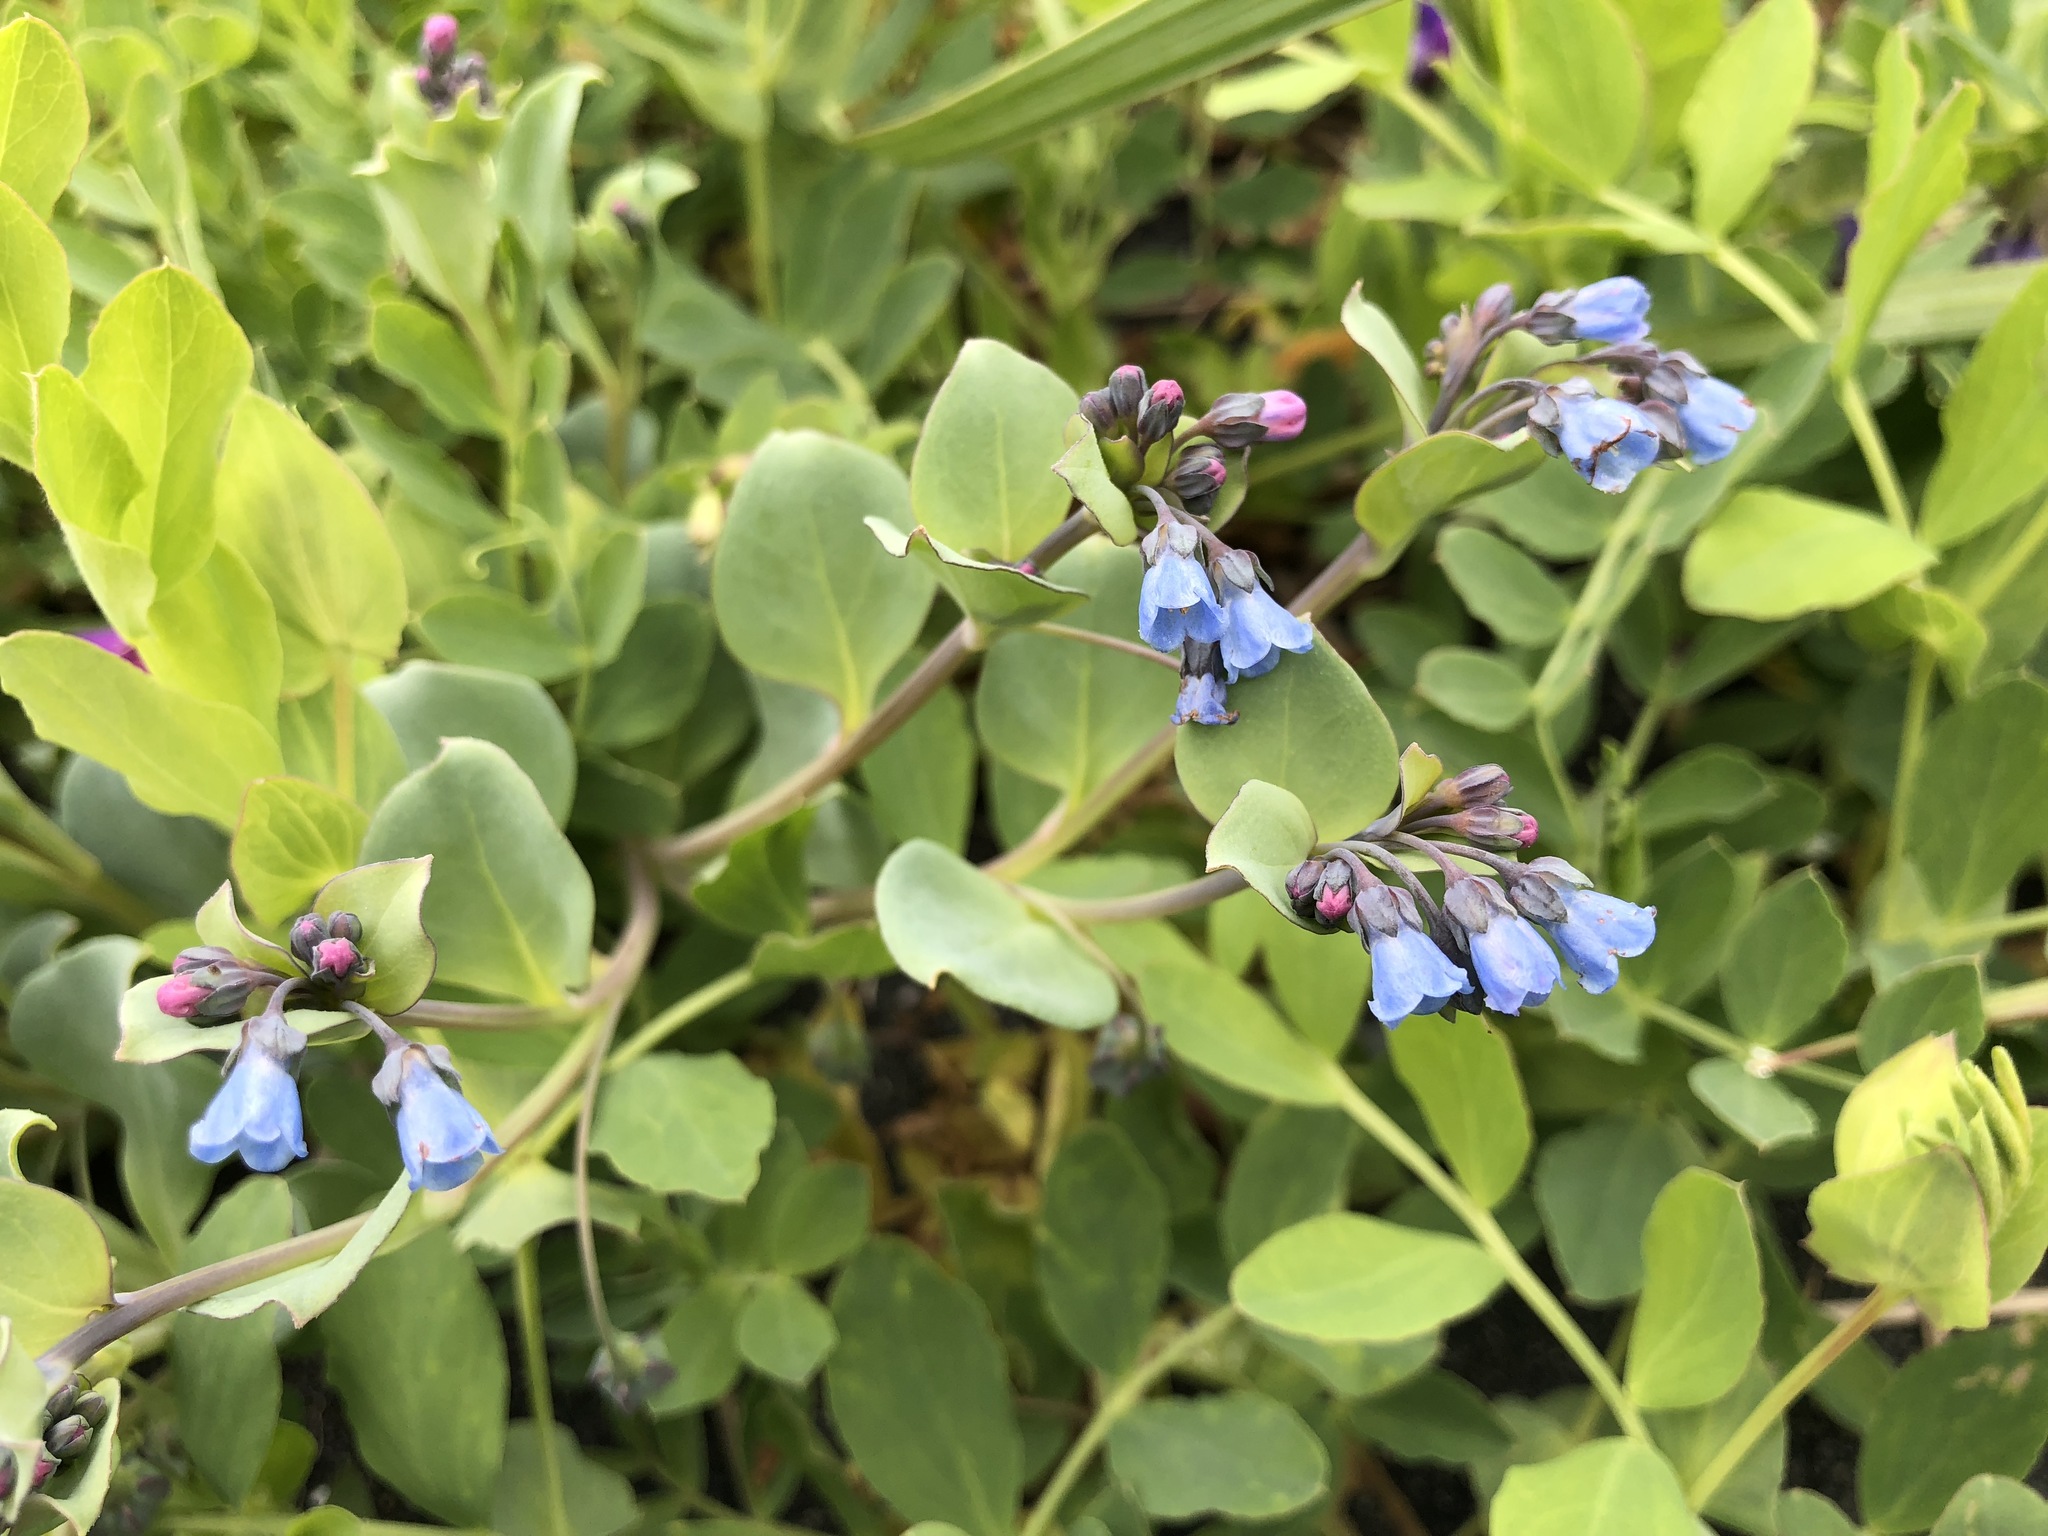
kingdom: Plantae
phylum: Tracheophyta
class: Magnoliopsida
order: Boraginales
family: Boraginaceae
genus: Mertensia
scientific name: Mertensia maritima
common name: Oysterplant
